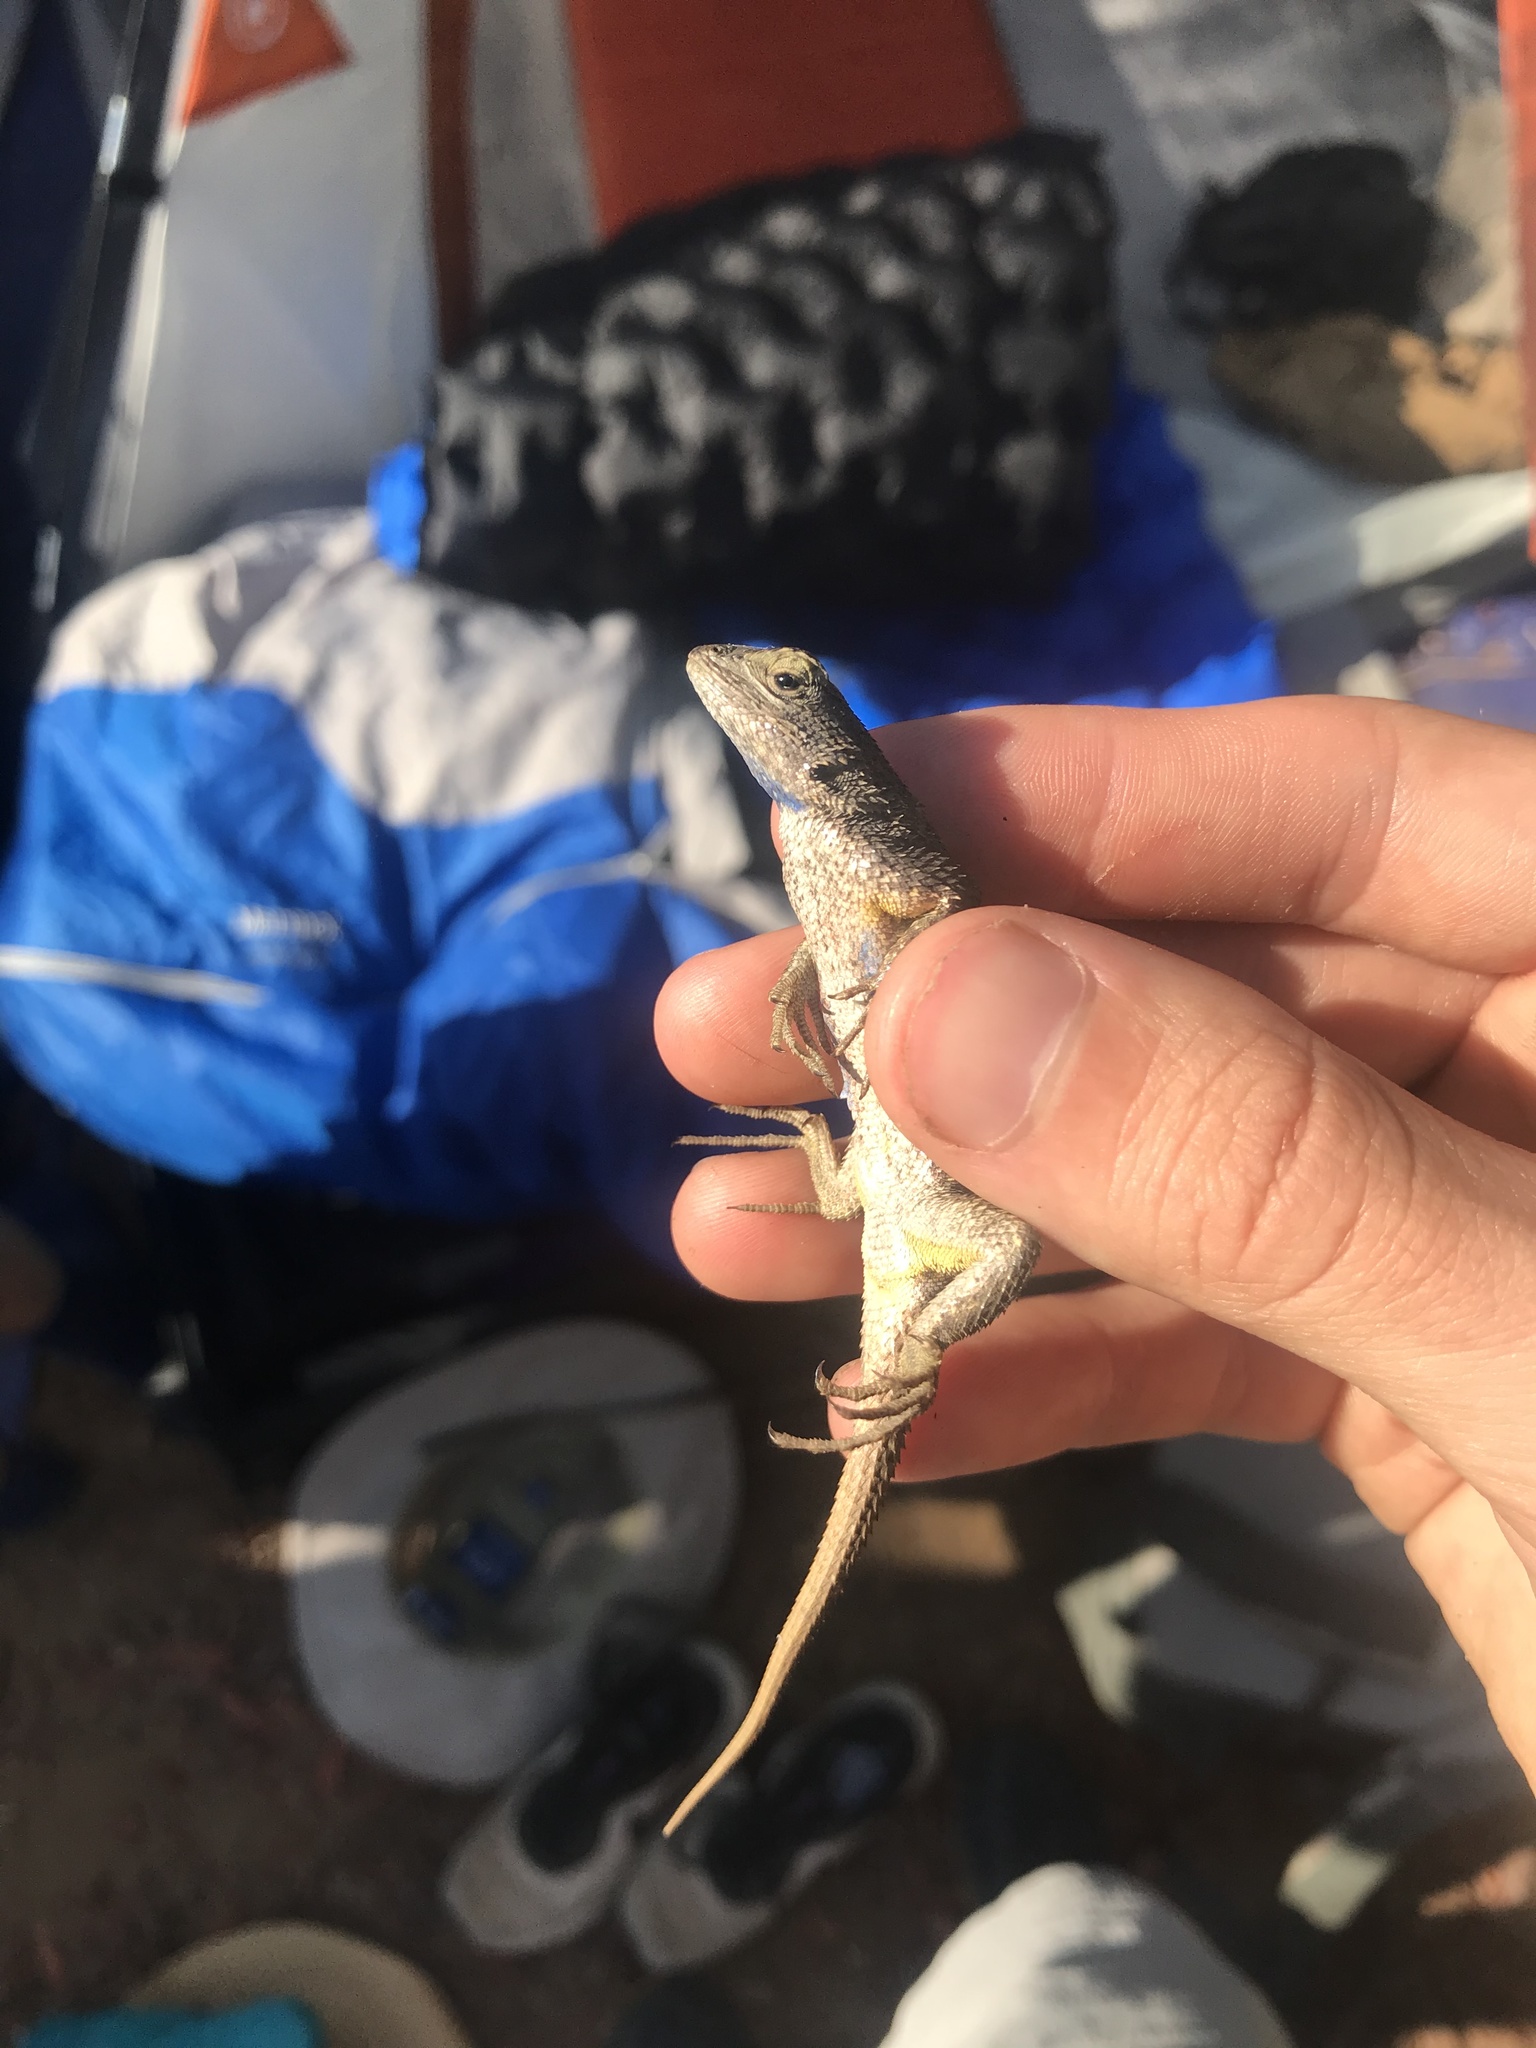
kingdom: Animalia
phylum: Chordata
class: Squamata
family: Phrynosomatidae
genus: Sceloporus
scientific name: Sceloporus occidentalis
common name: Western fence lizard
